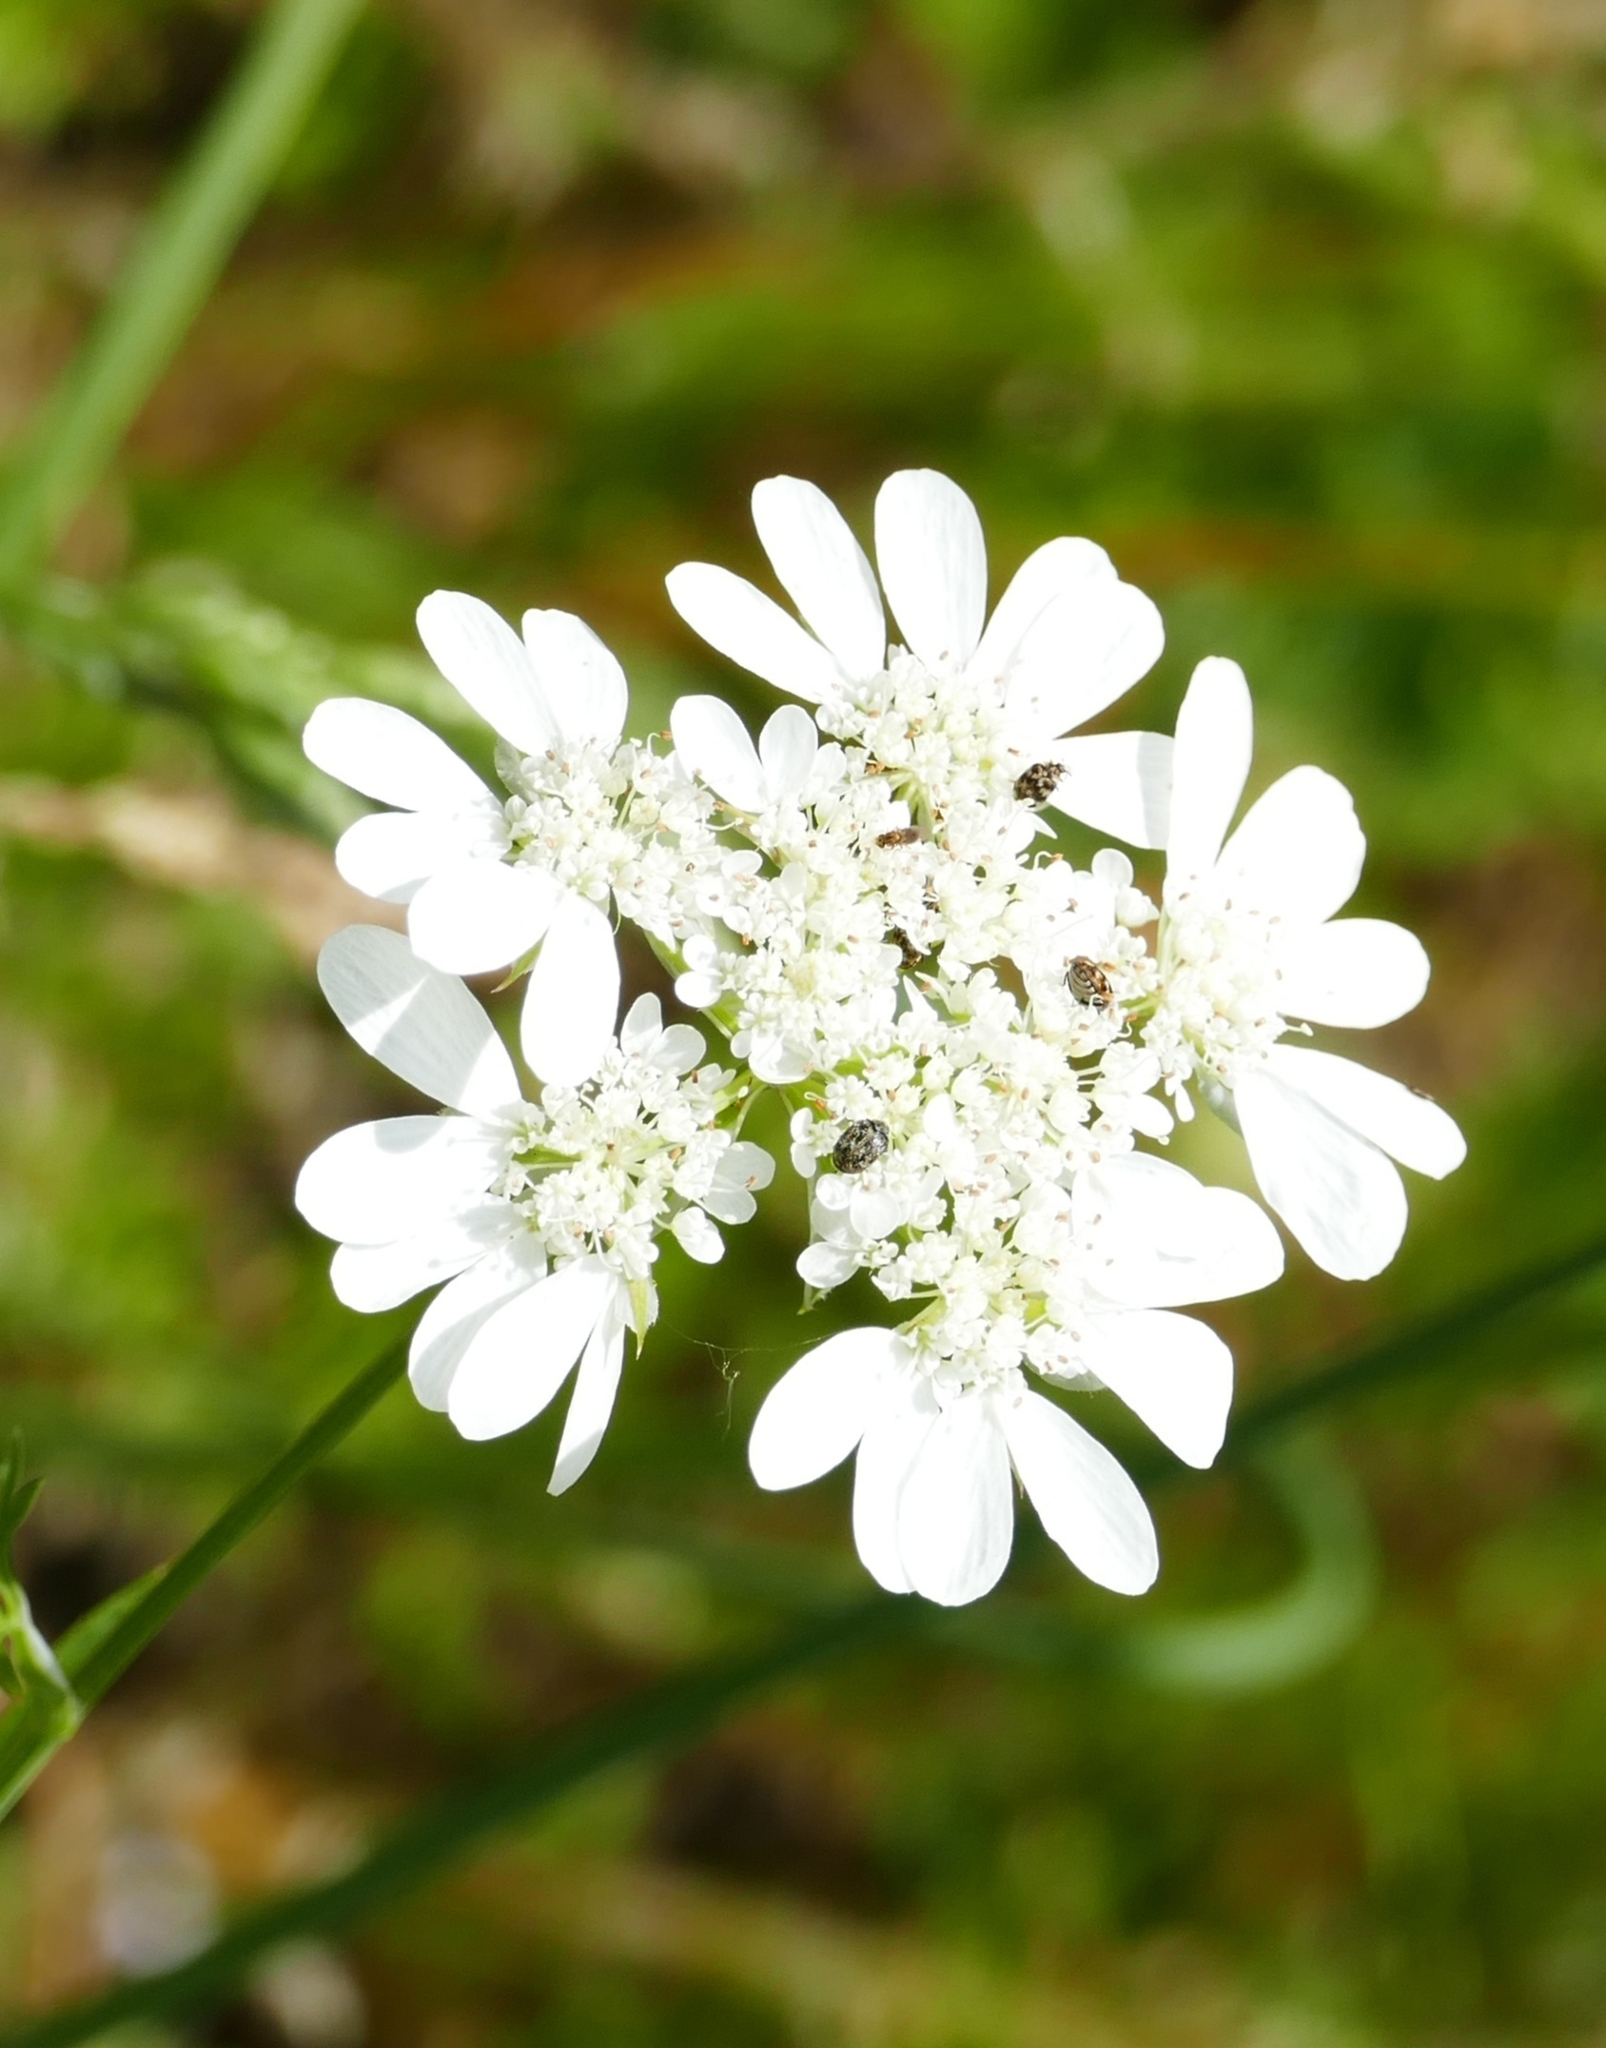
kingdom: Plantae
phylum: Tracheophyta
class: Magnoliopsida
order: Apiales
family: Apiaceae
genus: Orlaya
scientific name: Orlaya grandiflora
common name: White lace flower
